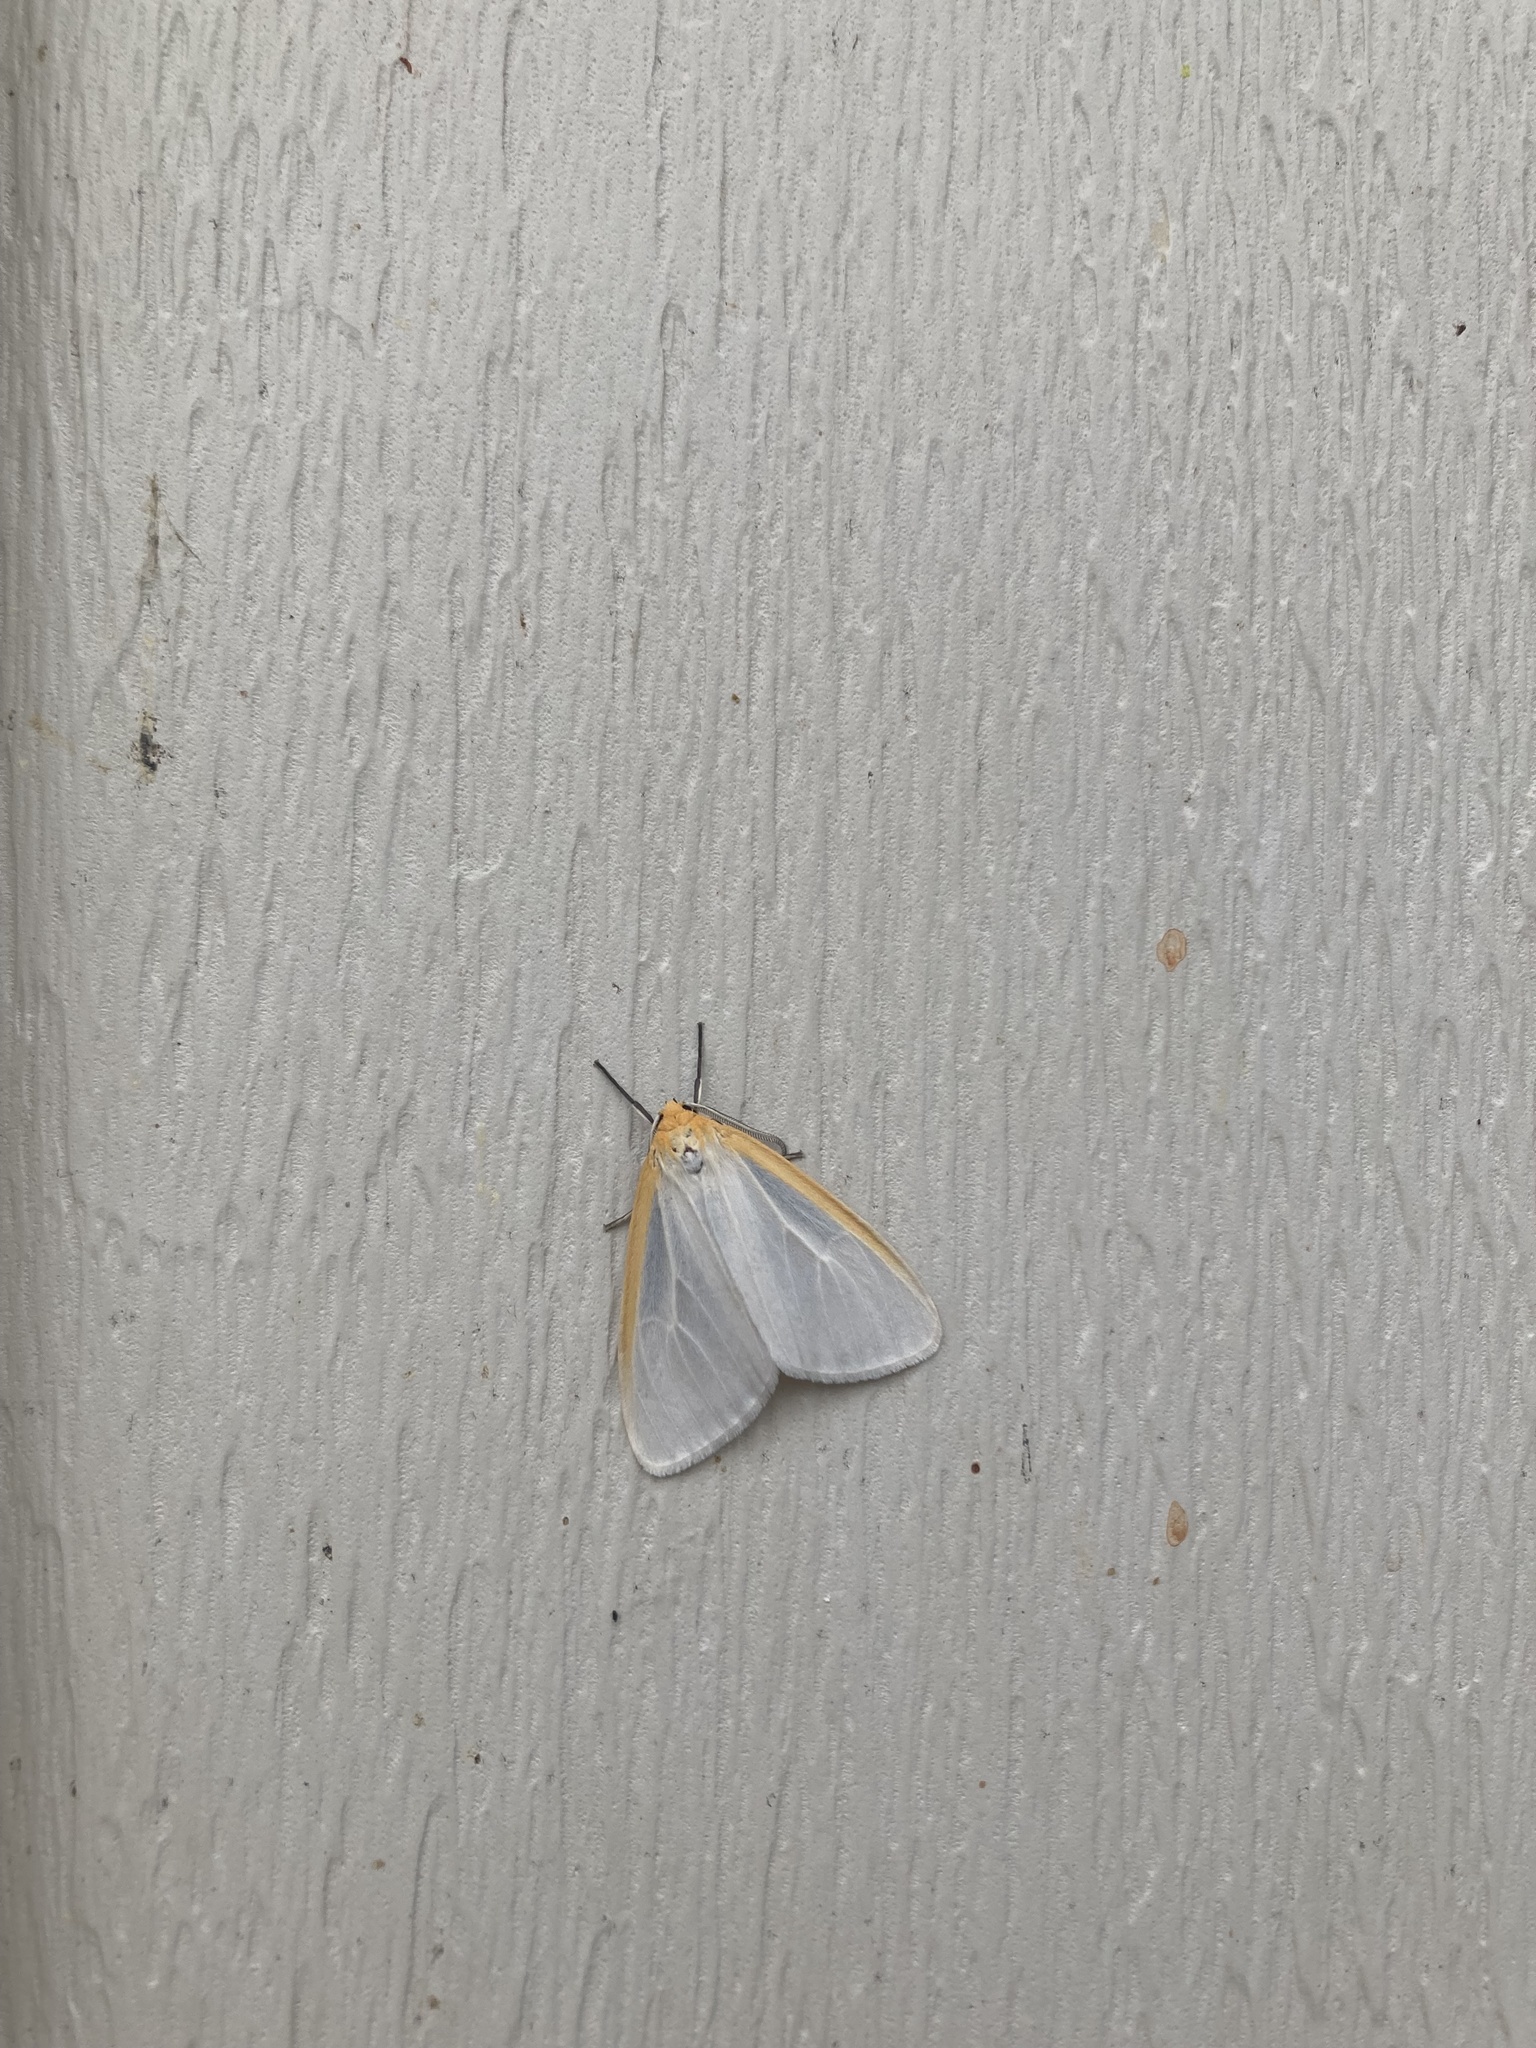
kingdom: Animalia
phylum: Arthropoda
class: Insecta
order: Lepidoptera
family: Erebidae
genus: Cycnia
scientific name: Cycnia tenera
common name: Delicate cycnia moth
